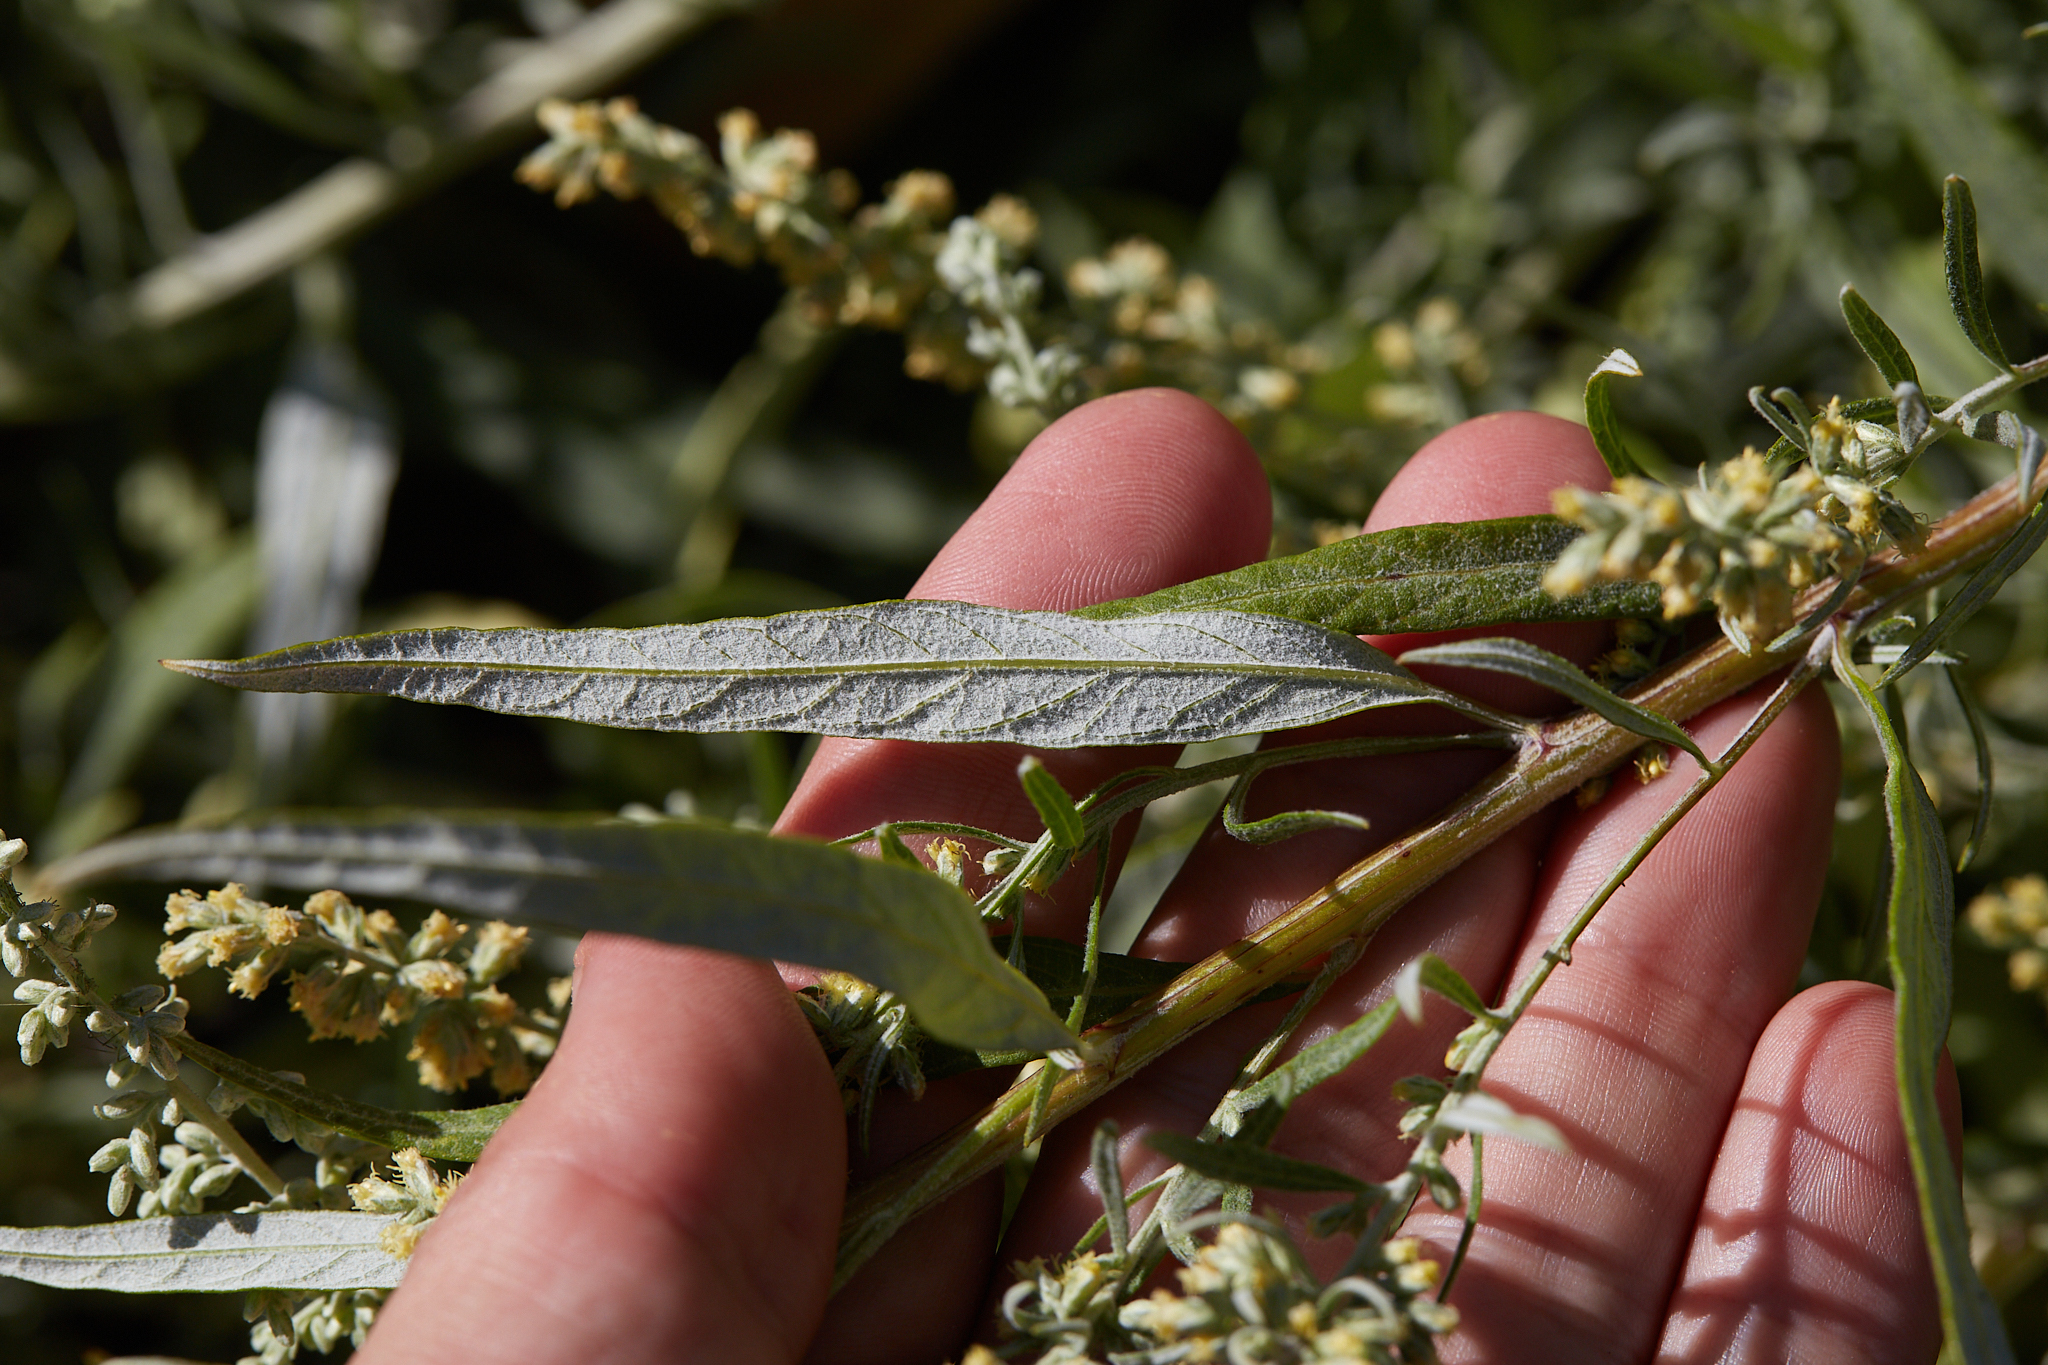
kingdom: Plantae
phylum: Tracheophyta
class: Magnoliopsida
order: Asterales
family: Asteraceae
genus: Artemisia
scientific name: Artemisia douglasiana
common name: Northwest mugwort
